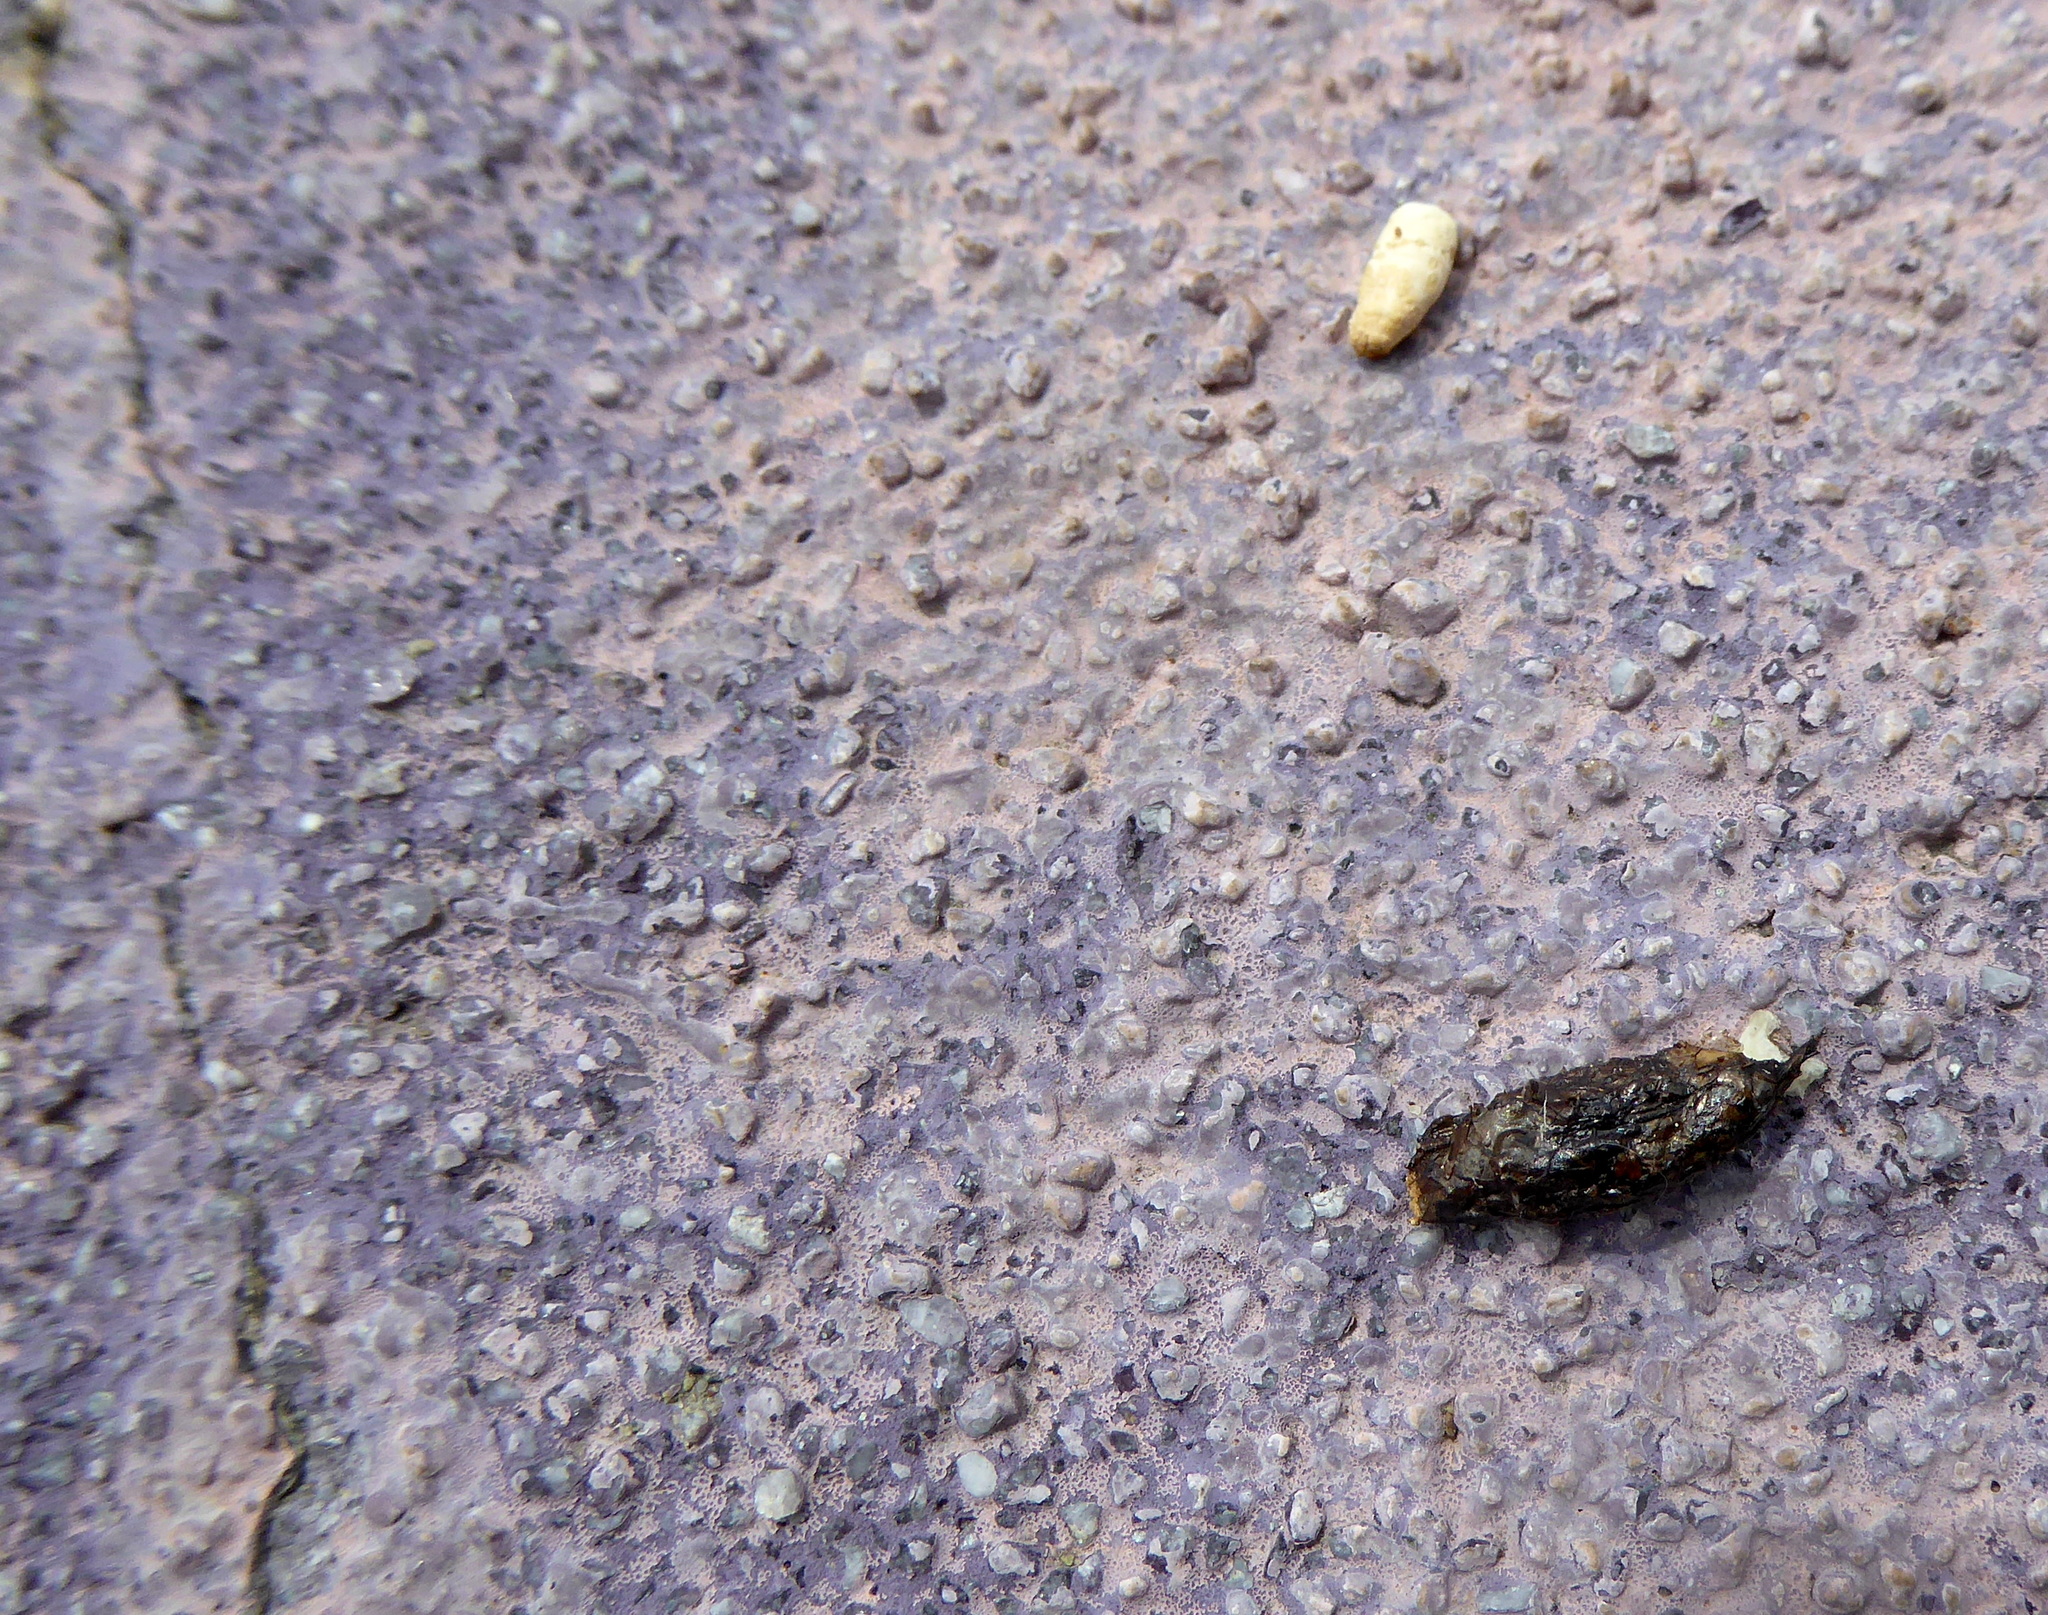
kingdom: Animalia
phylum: Chordata
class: Squamata
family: Phrynosomatidae
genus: Sceloporus
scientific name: Sceloporus occidentalis
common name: Western fence lizard
